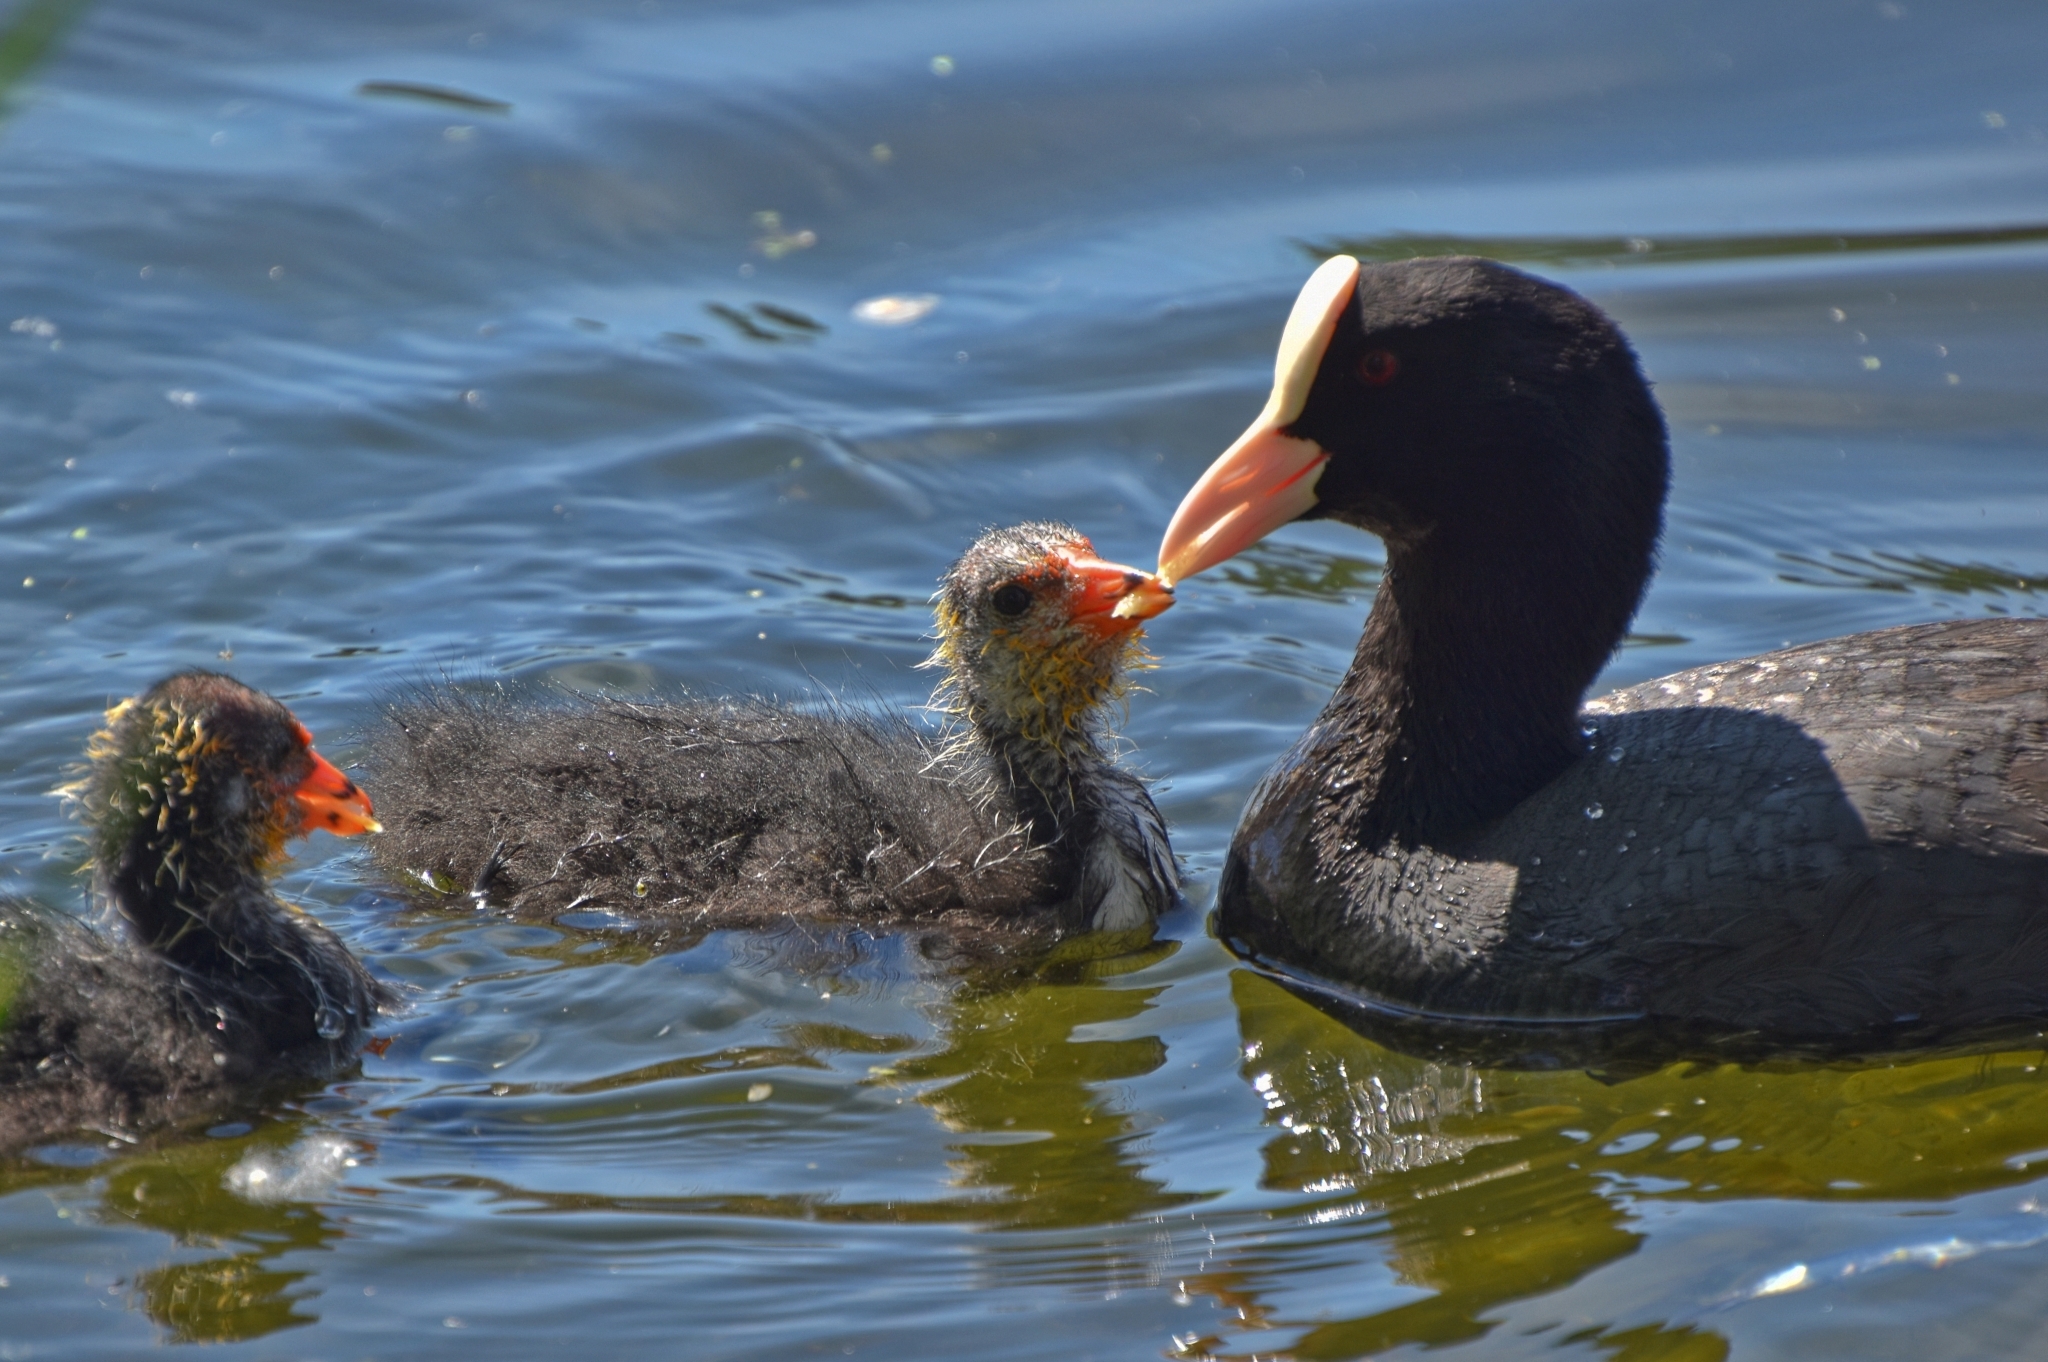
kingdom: Animalia
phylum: Chordata
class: Aves
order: Gruiformes
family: Rallidae
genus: Fulica
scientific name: Fulica atra
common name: Eurasian coot
